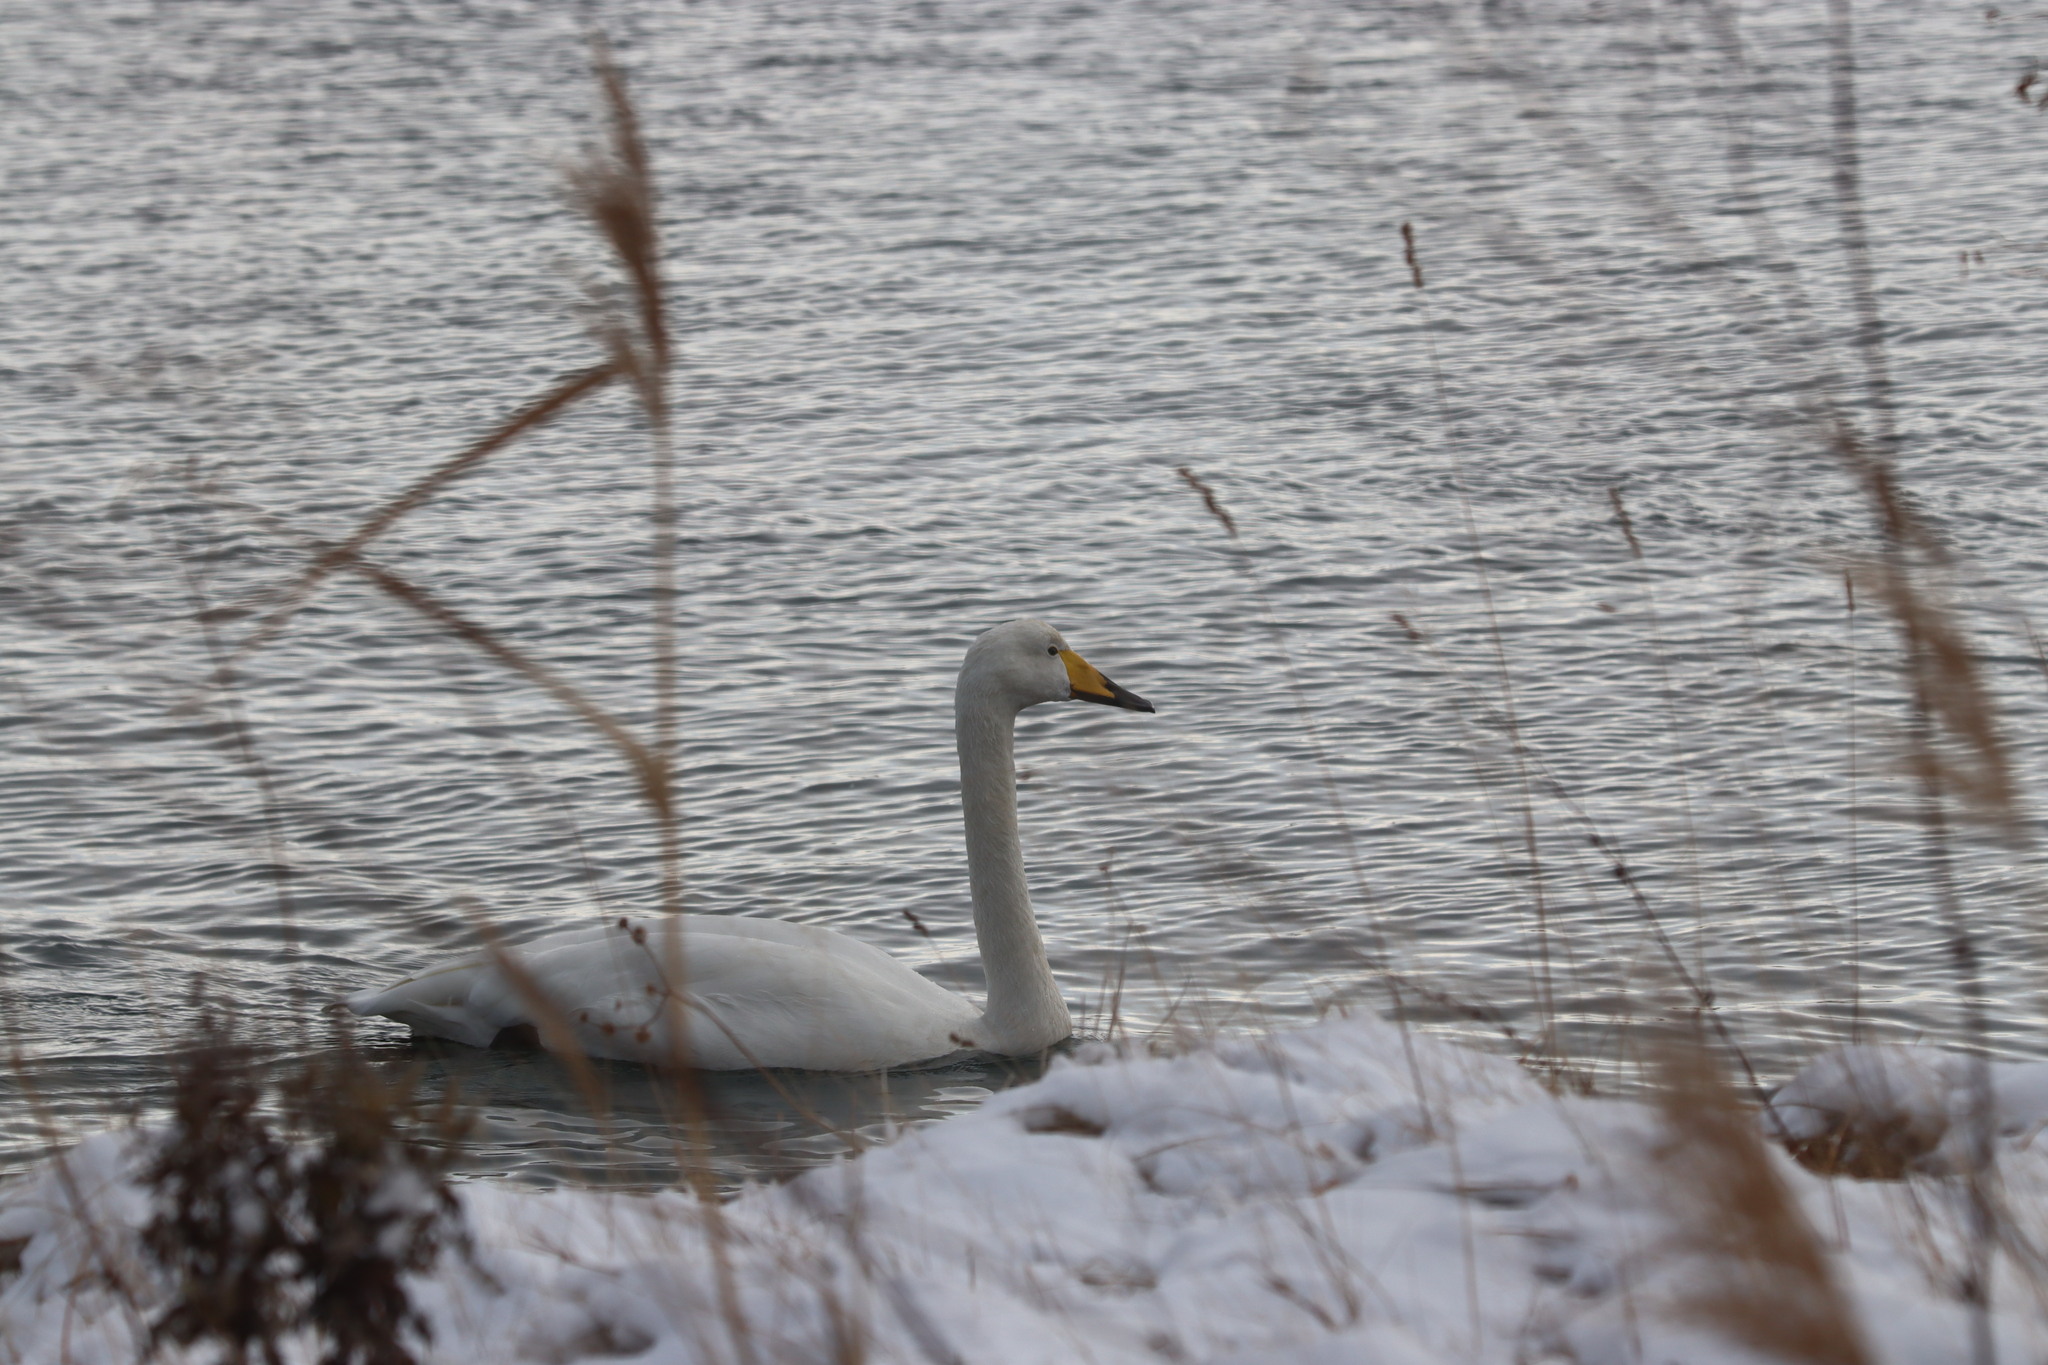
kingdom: Animalia
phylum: Chordata
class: Aves
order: Anseriformes
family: Anatidae
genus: Cygnus
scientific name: Cygnus cygnus
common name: Whooper swan
